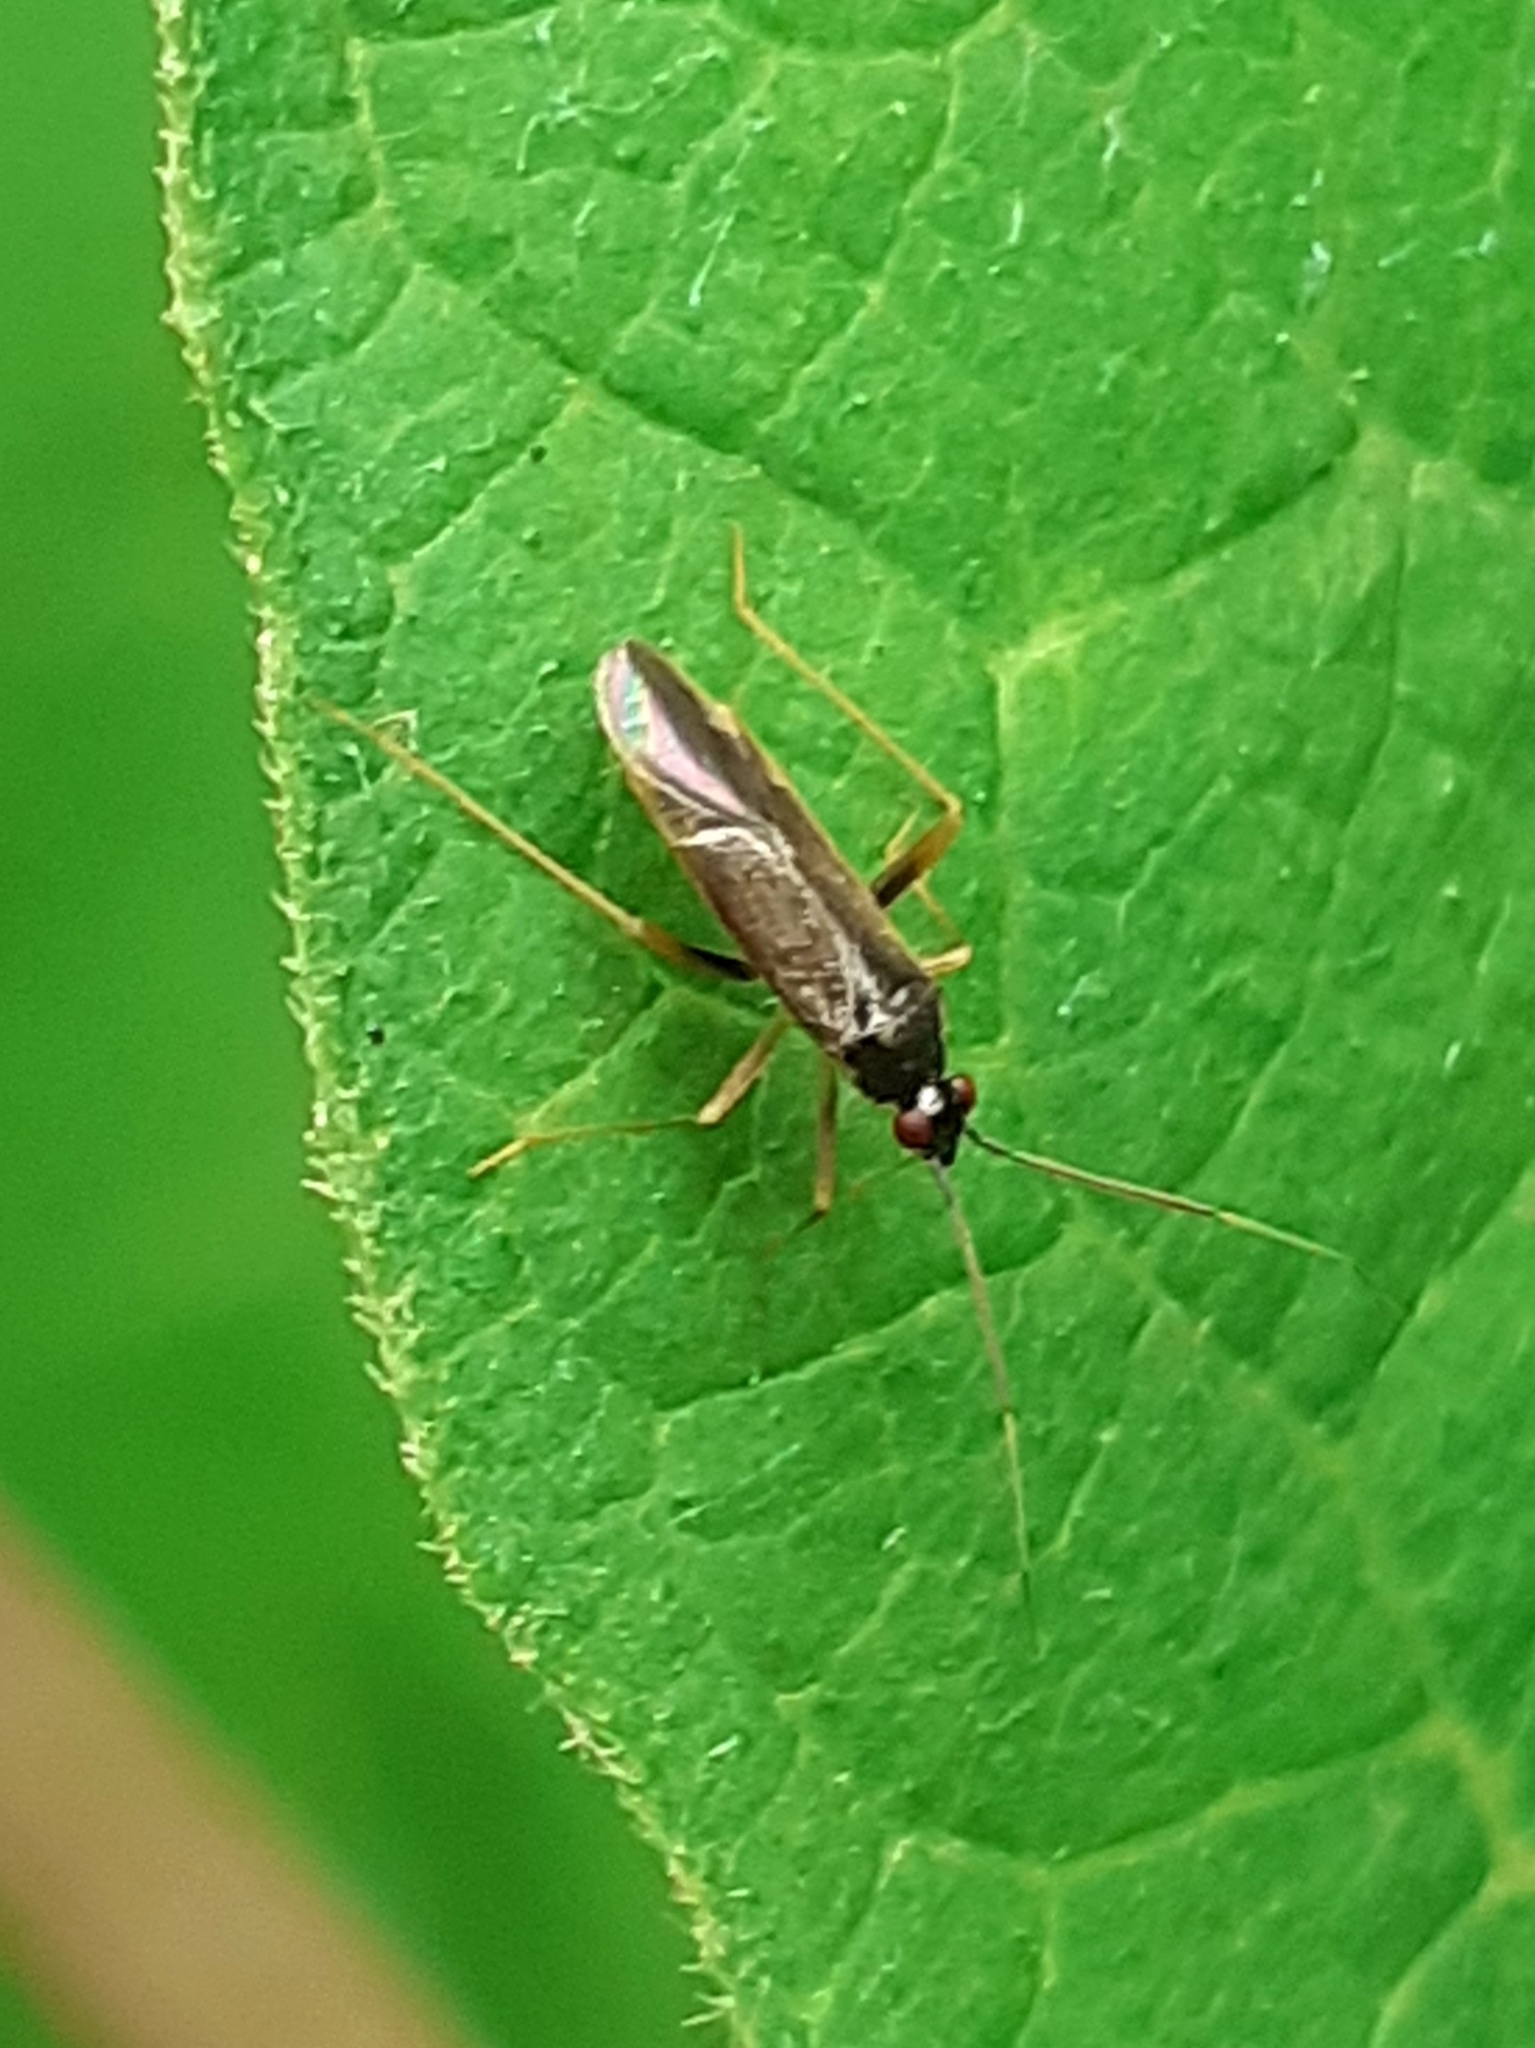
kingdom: Animalia
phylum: Arthropoda
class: Insecta
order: Hemiptera
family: Miridae
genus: Phylus
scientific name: Phylus coryli
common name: Plant bug
